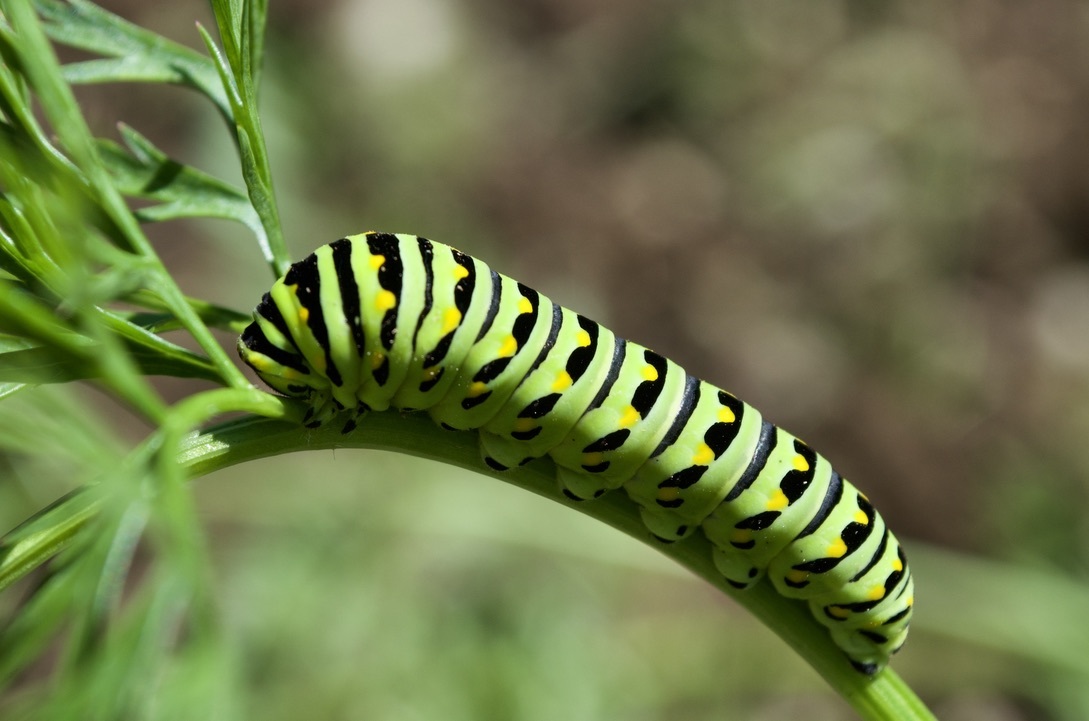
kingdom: Animalia
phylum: Arthropoda
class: Insecta
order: Lepidoptera
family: Papilionidae
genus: Papilio
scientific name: Papilio polyxenes
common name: Black swallowtail
